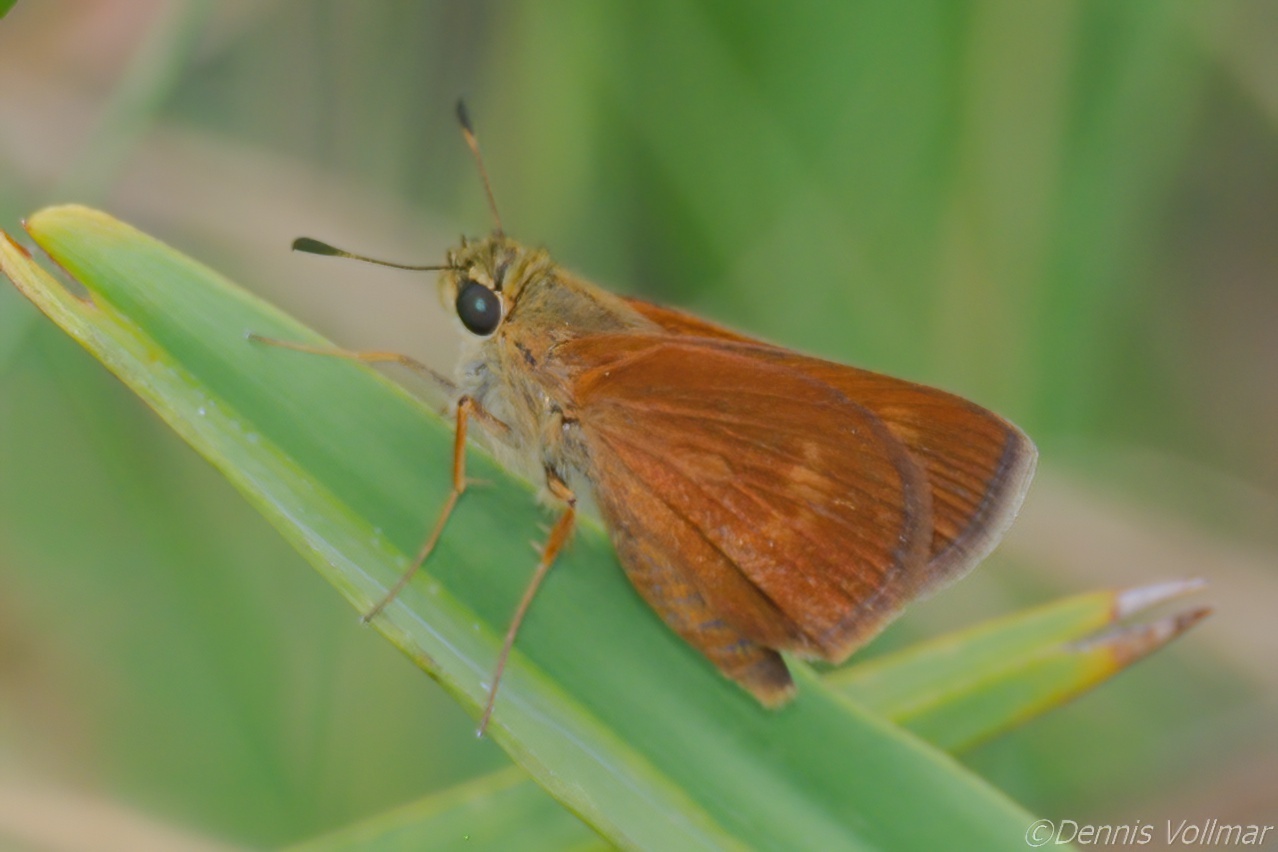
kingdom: Animalia
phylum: Arthropoda
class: Insecta
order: Lepidoptera
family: Hesperiidae
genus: Polites
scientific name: Polites otho
